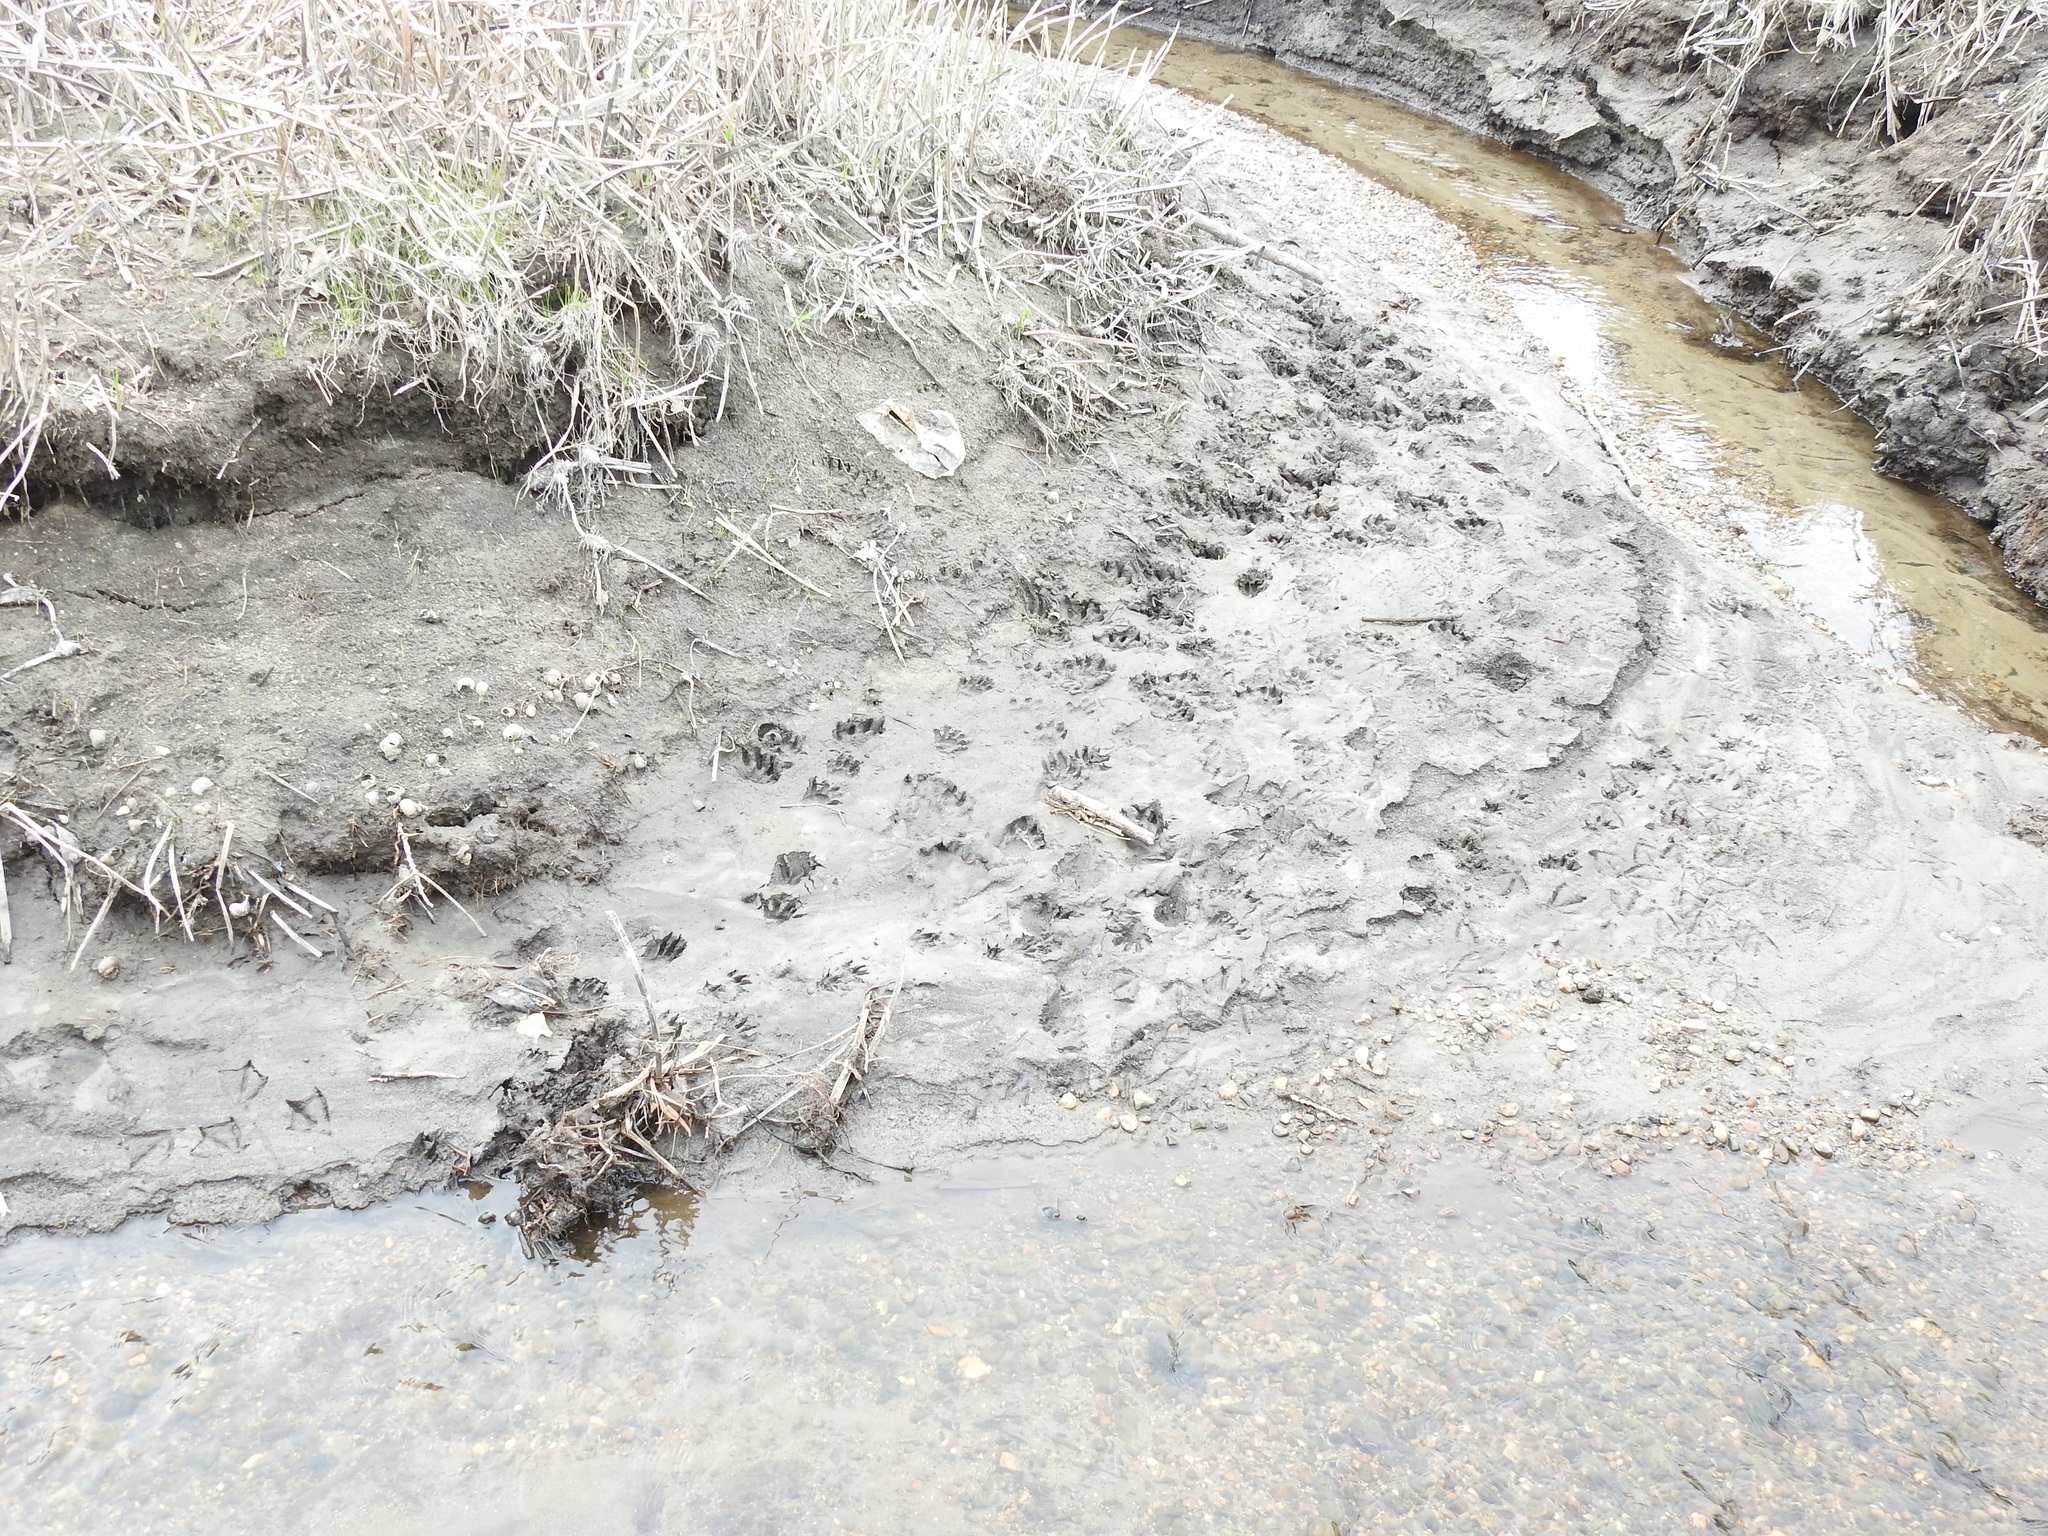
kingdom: Animalia
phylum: Chordata
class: Mammalia
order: Carnivora
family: Mustelidae
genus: Lontra
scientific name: Lontra canadensis
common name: North american river otter
